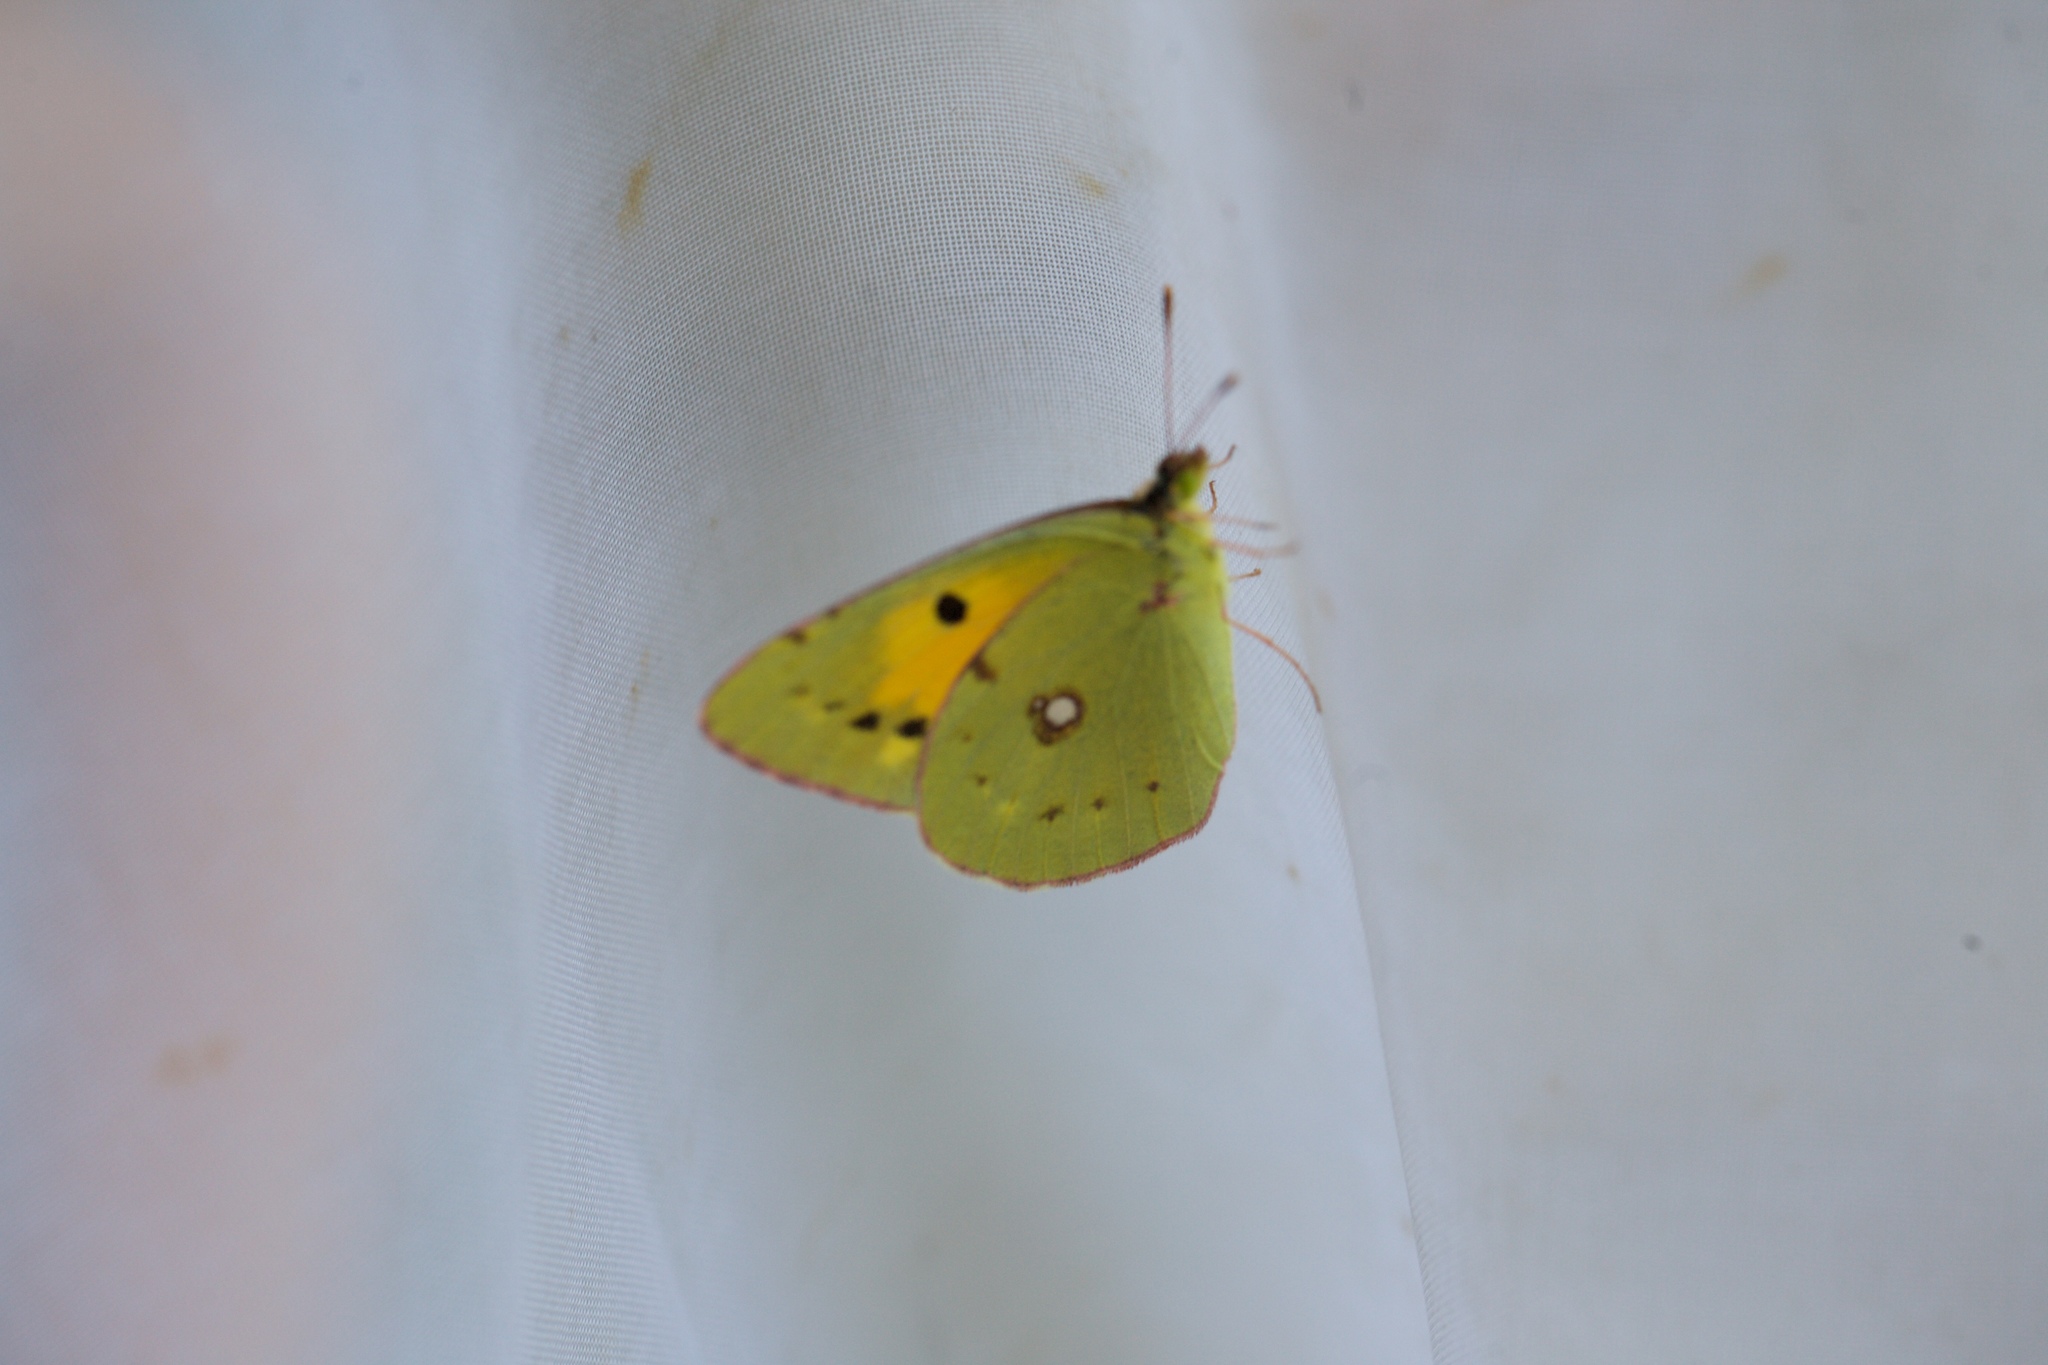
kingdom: Animalia
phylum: Arthropoda
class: Insecta
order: Lepidoptera
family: Pieridae
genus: Colias
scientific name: Colias croceus
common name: Clouded yellow
